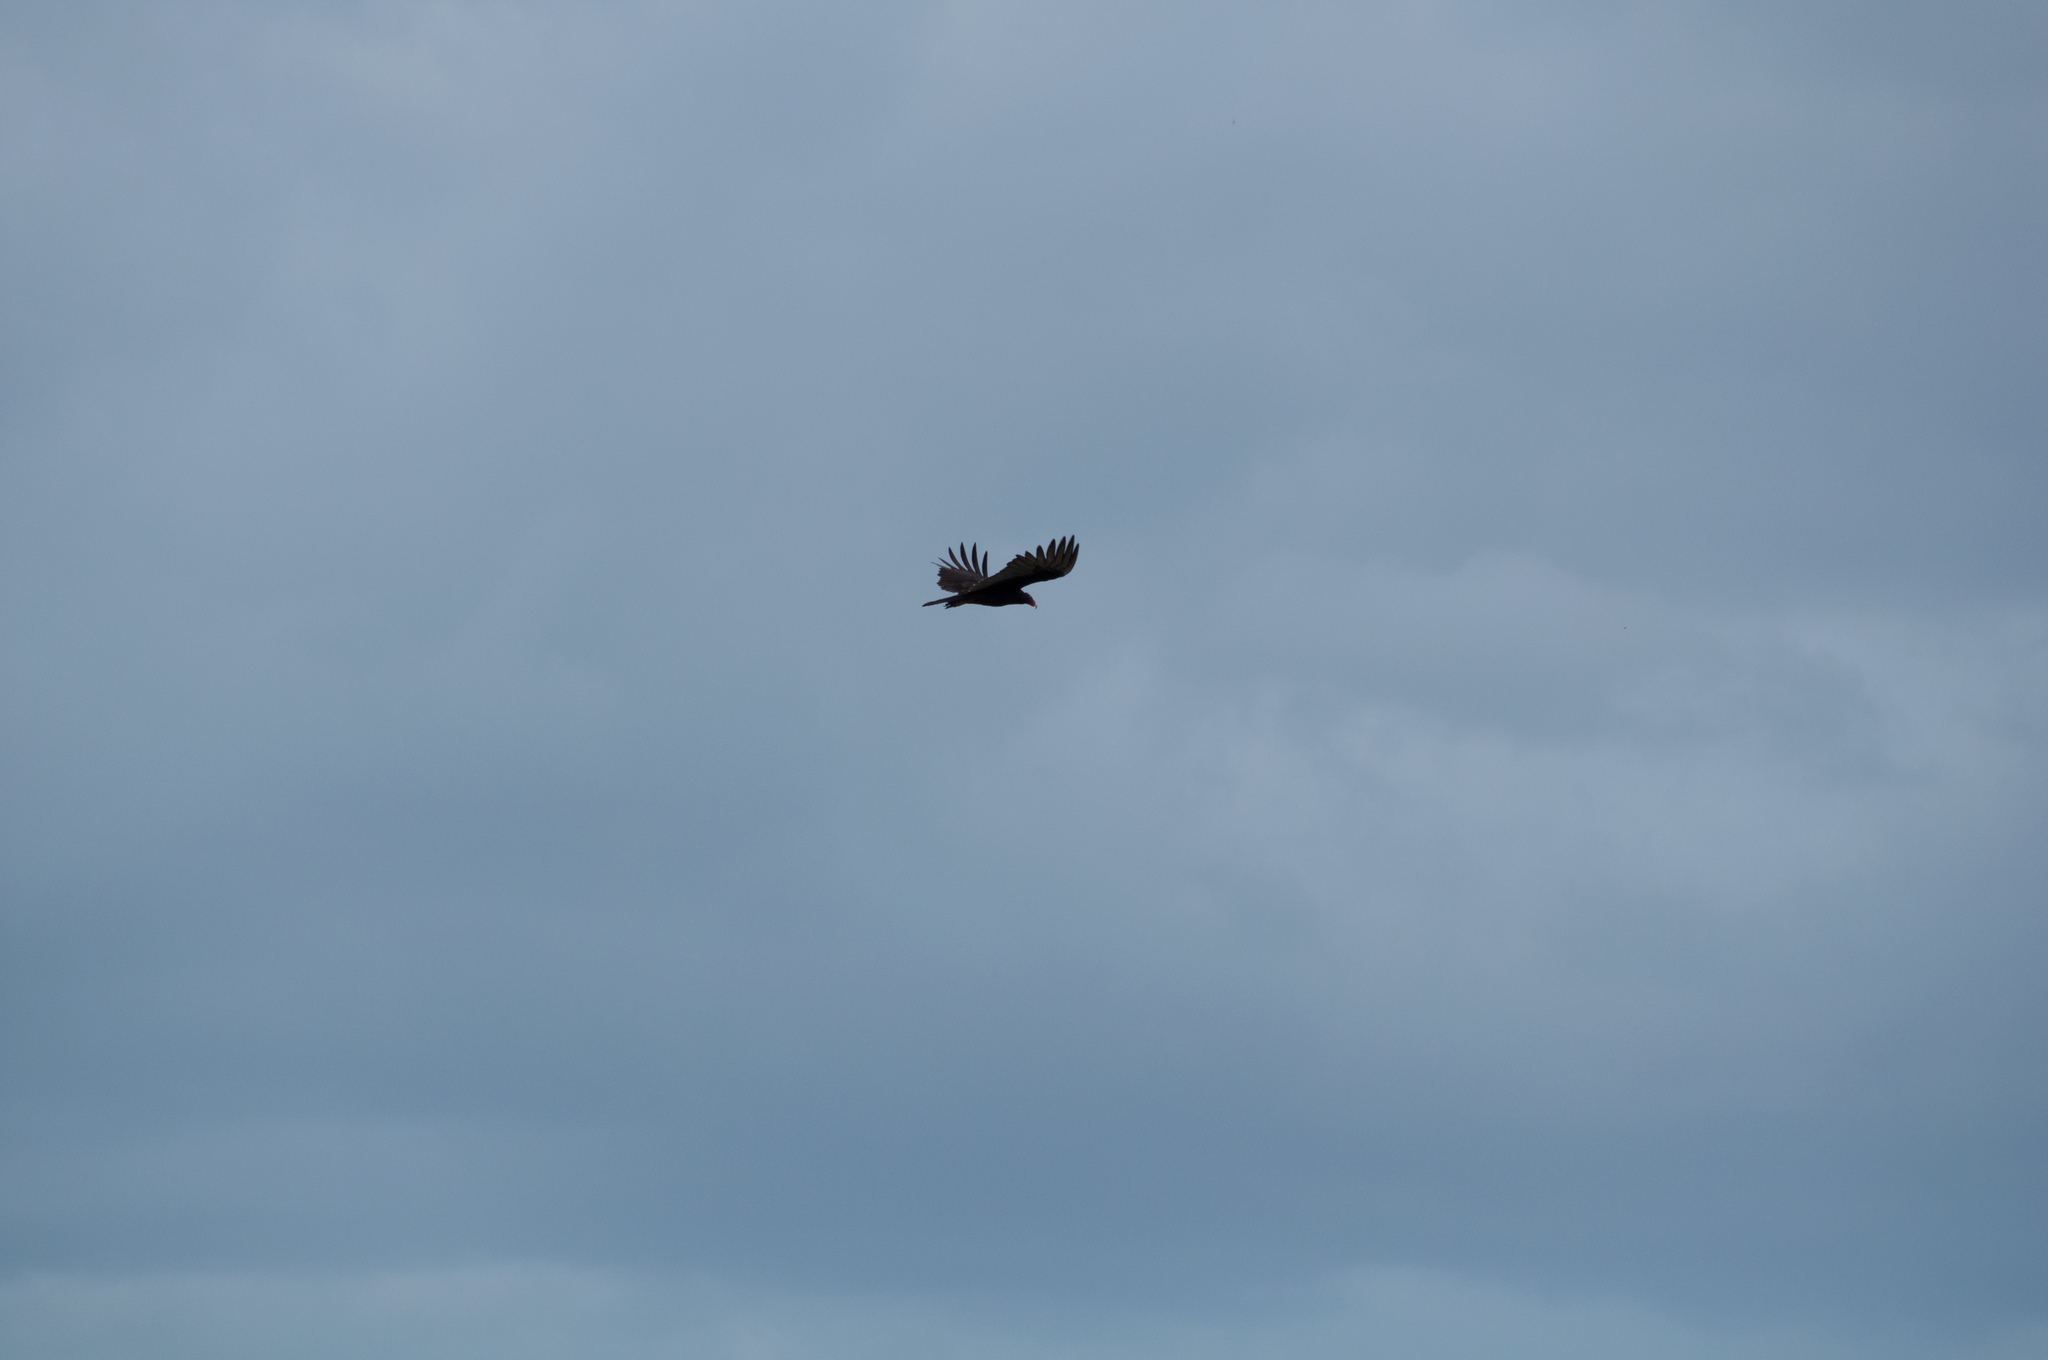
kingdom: Animalia
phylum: Chordata
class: Aves
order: Accipitriformes
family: Cathartidae
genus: Cathartes
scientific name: Cathartes aura
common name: Turkey vulture
